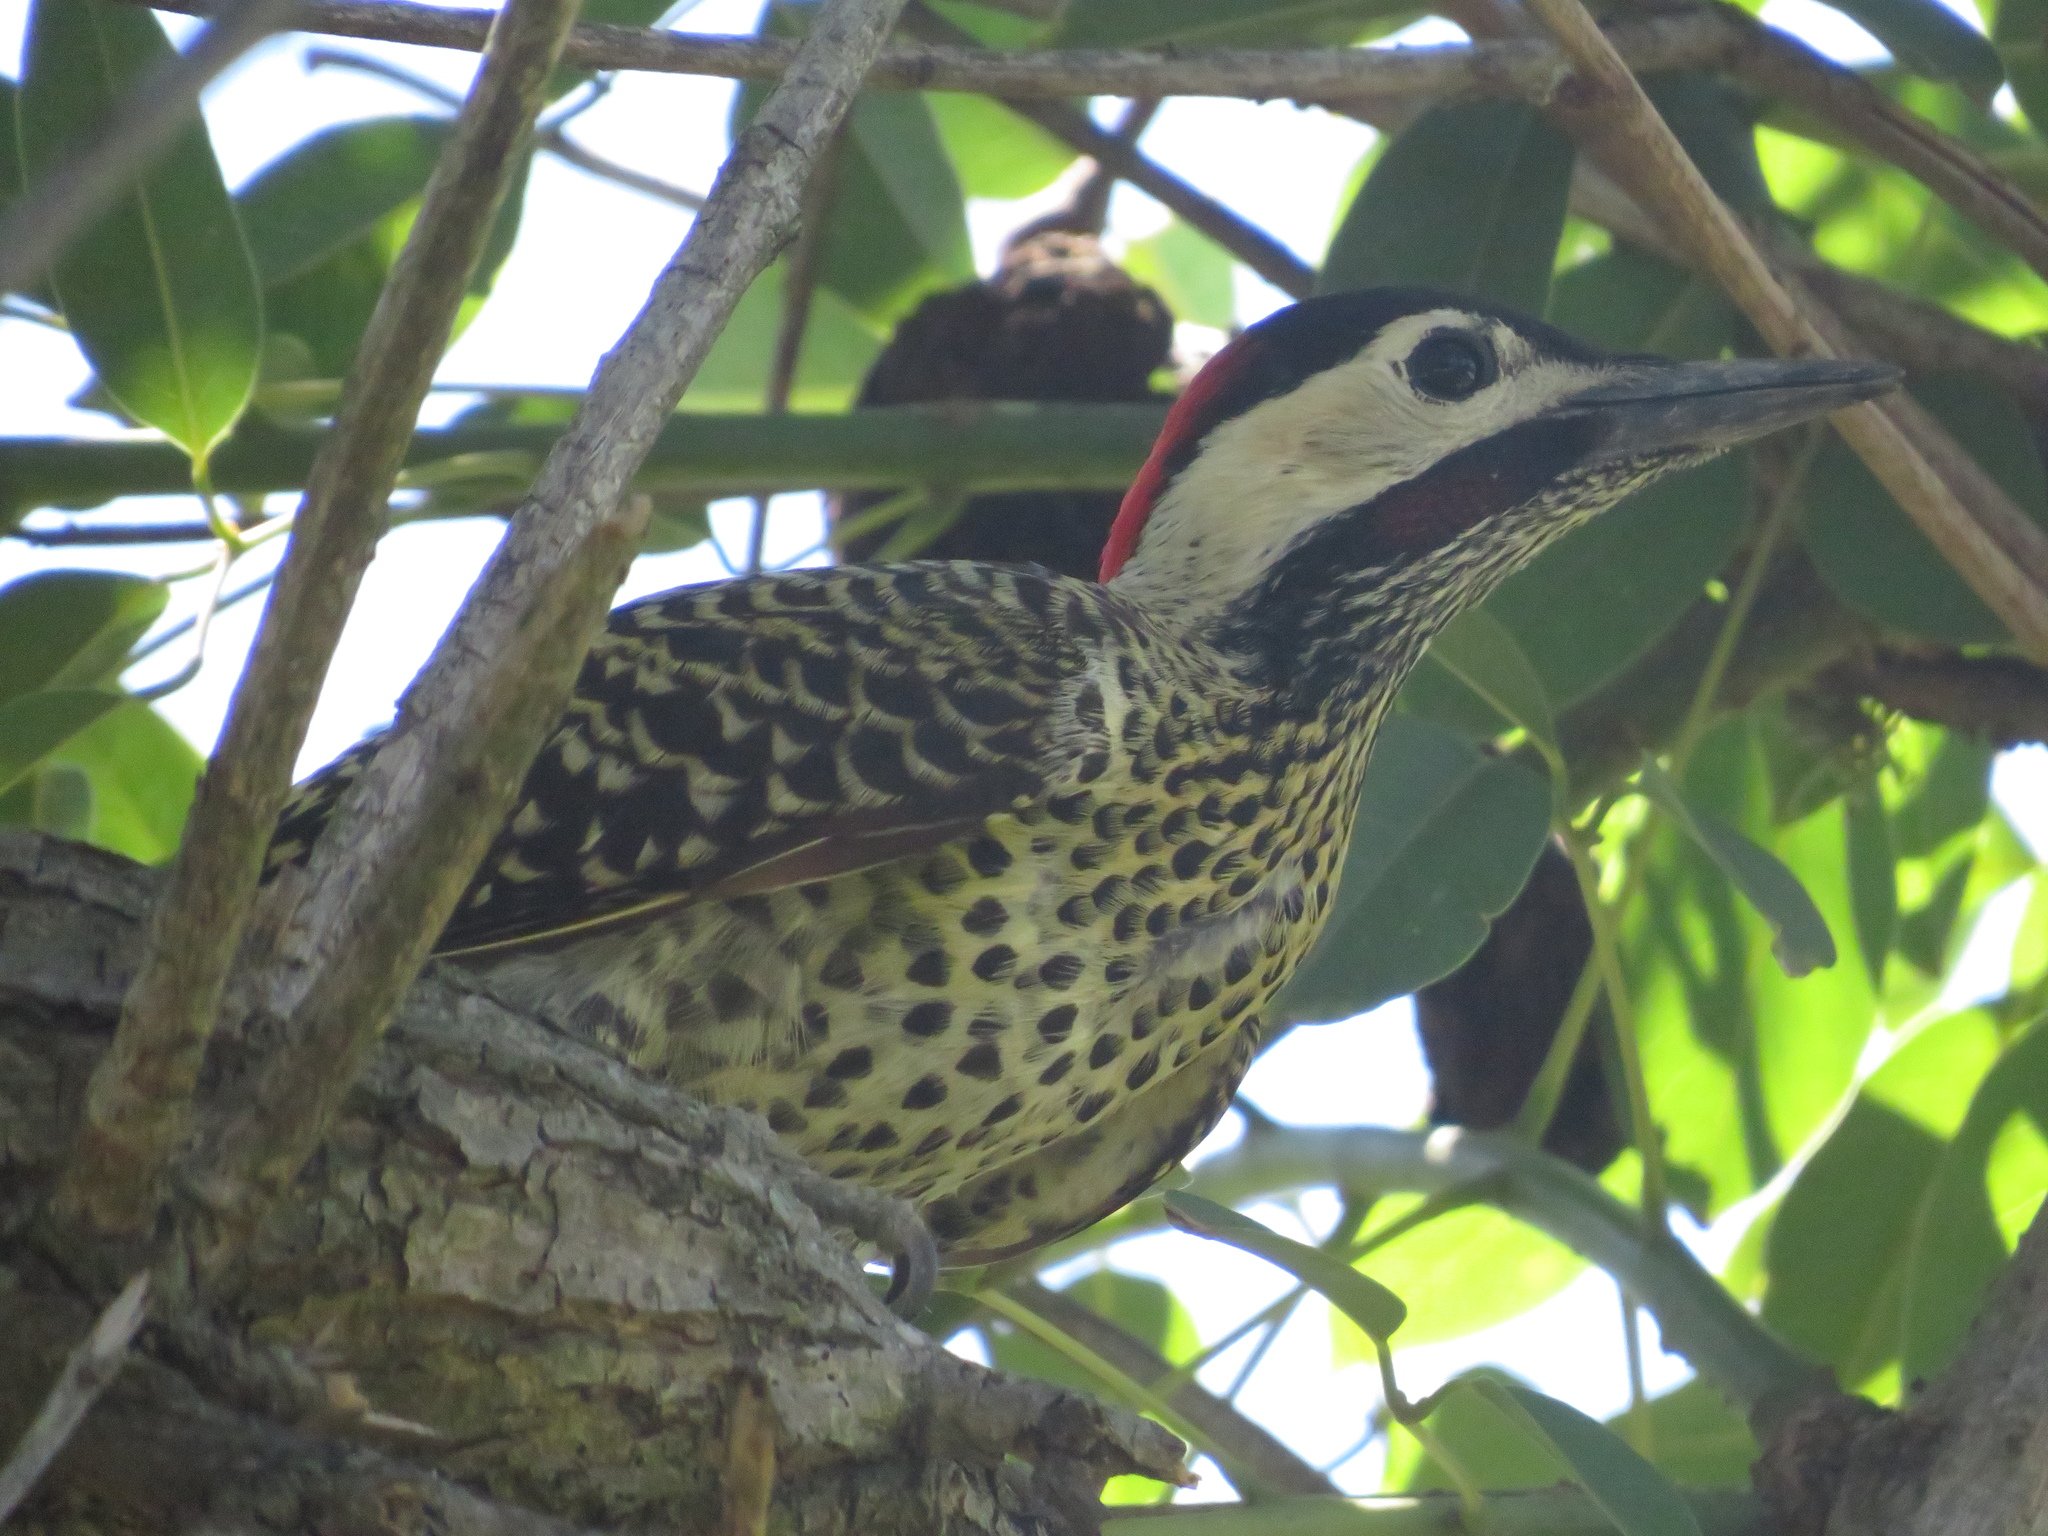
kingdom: Animalia
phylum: Chordata
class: Aves
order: Piciformes
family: Picidae
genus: Colaptes
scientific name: Colaptes melanochloros
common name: Green-barred woodpecker
